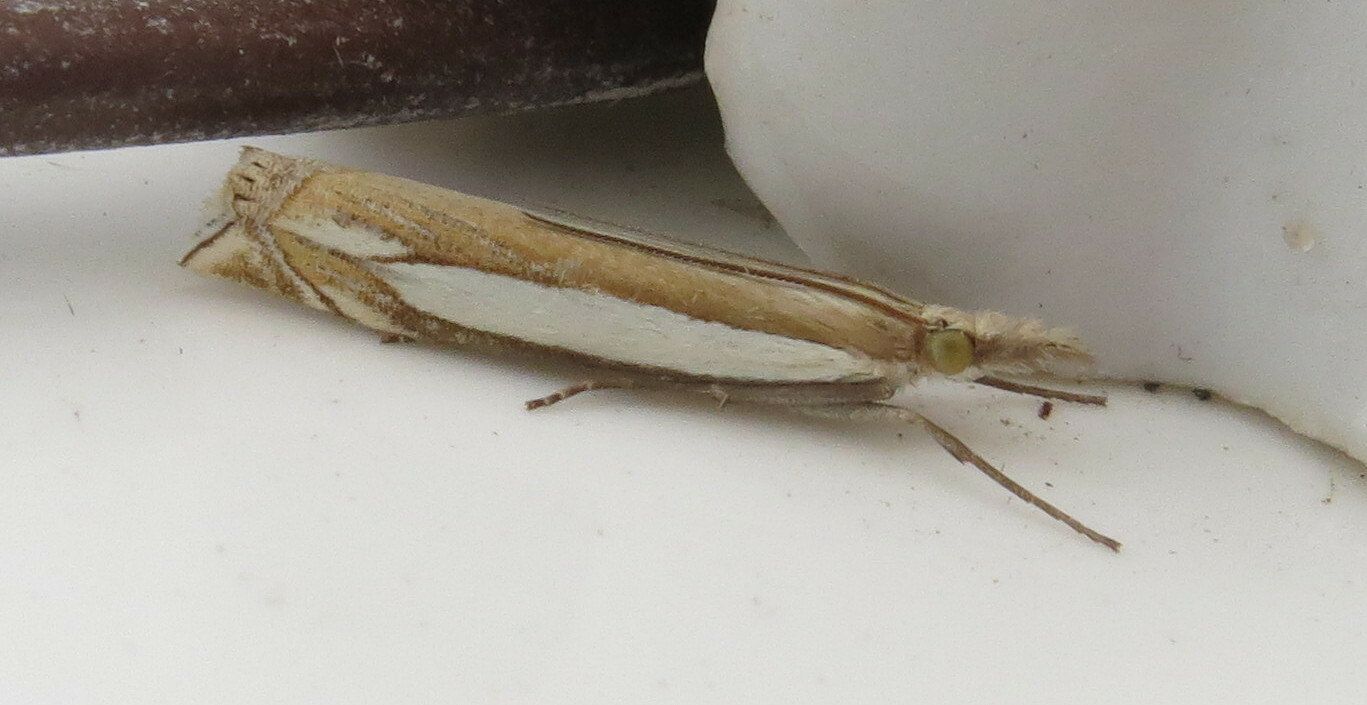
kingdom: Animalia
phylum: Arthropoda
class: Insecta
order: Lepidoptera
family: Crambidae
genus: Crambus
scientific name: Crambus pascuella
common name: Inlaid grass-veneer
